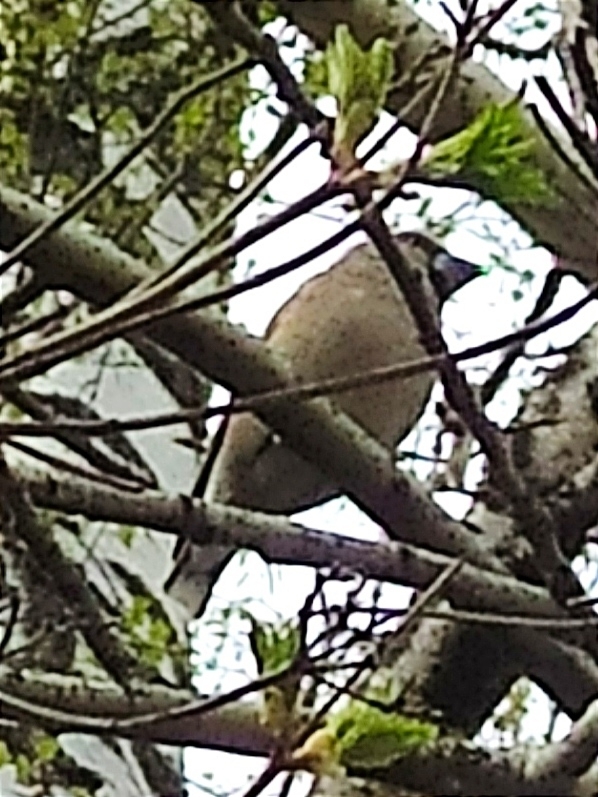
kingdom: Animalia
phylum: Chordata
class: Aves
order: Passeriformes
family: Fringillidae
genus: Coccothraustes
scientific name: Coccothraustes coccothraustes
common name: Hawfinch
